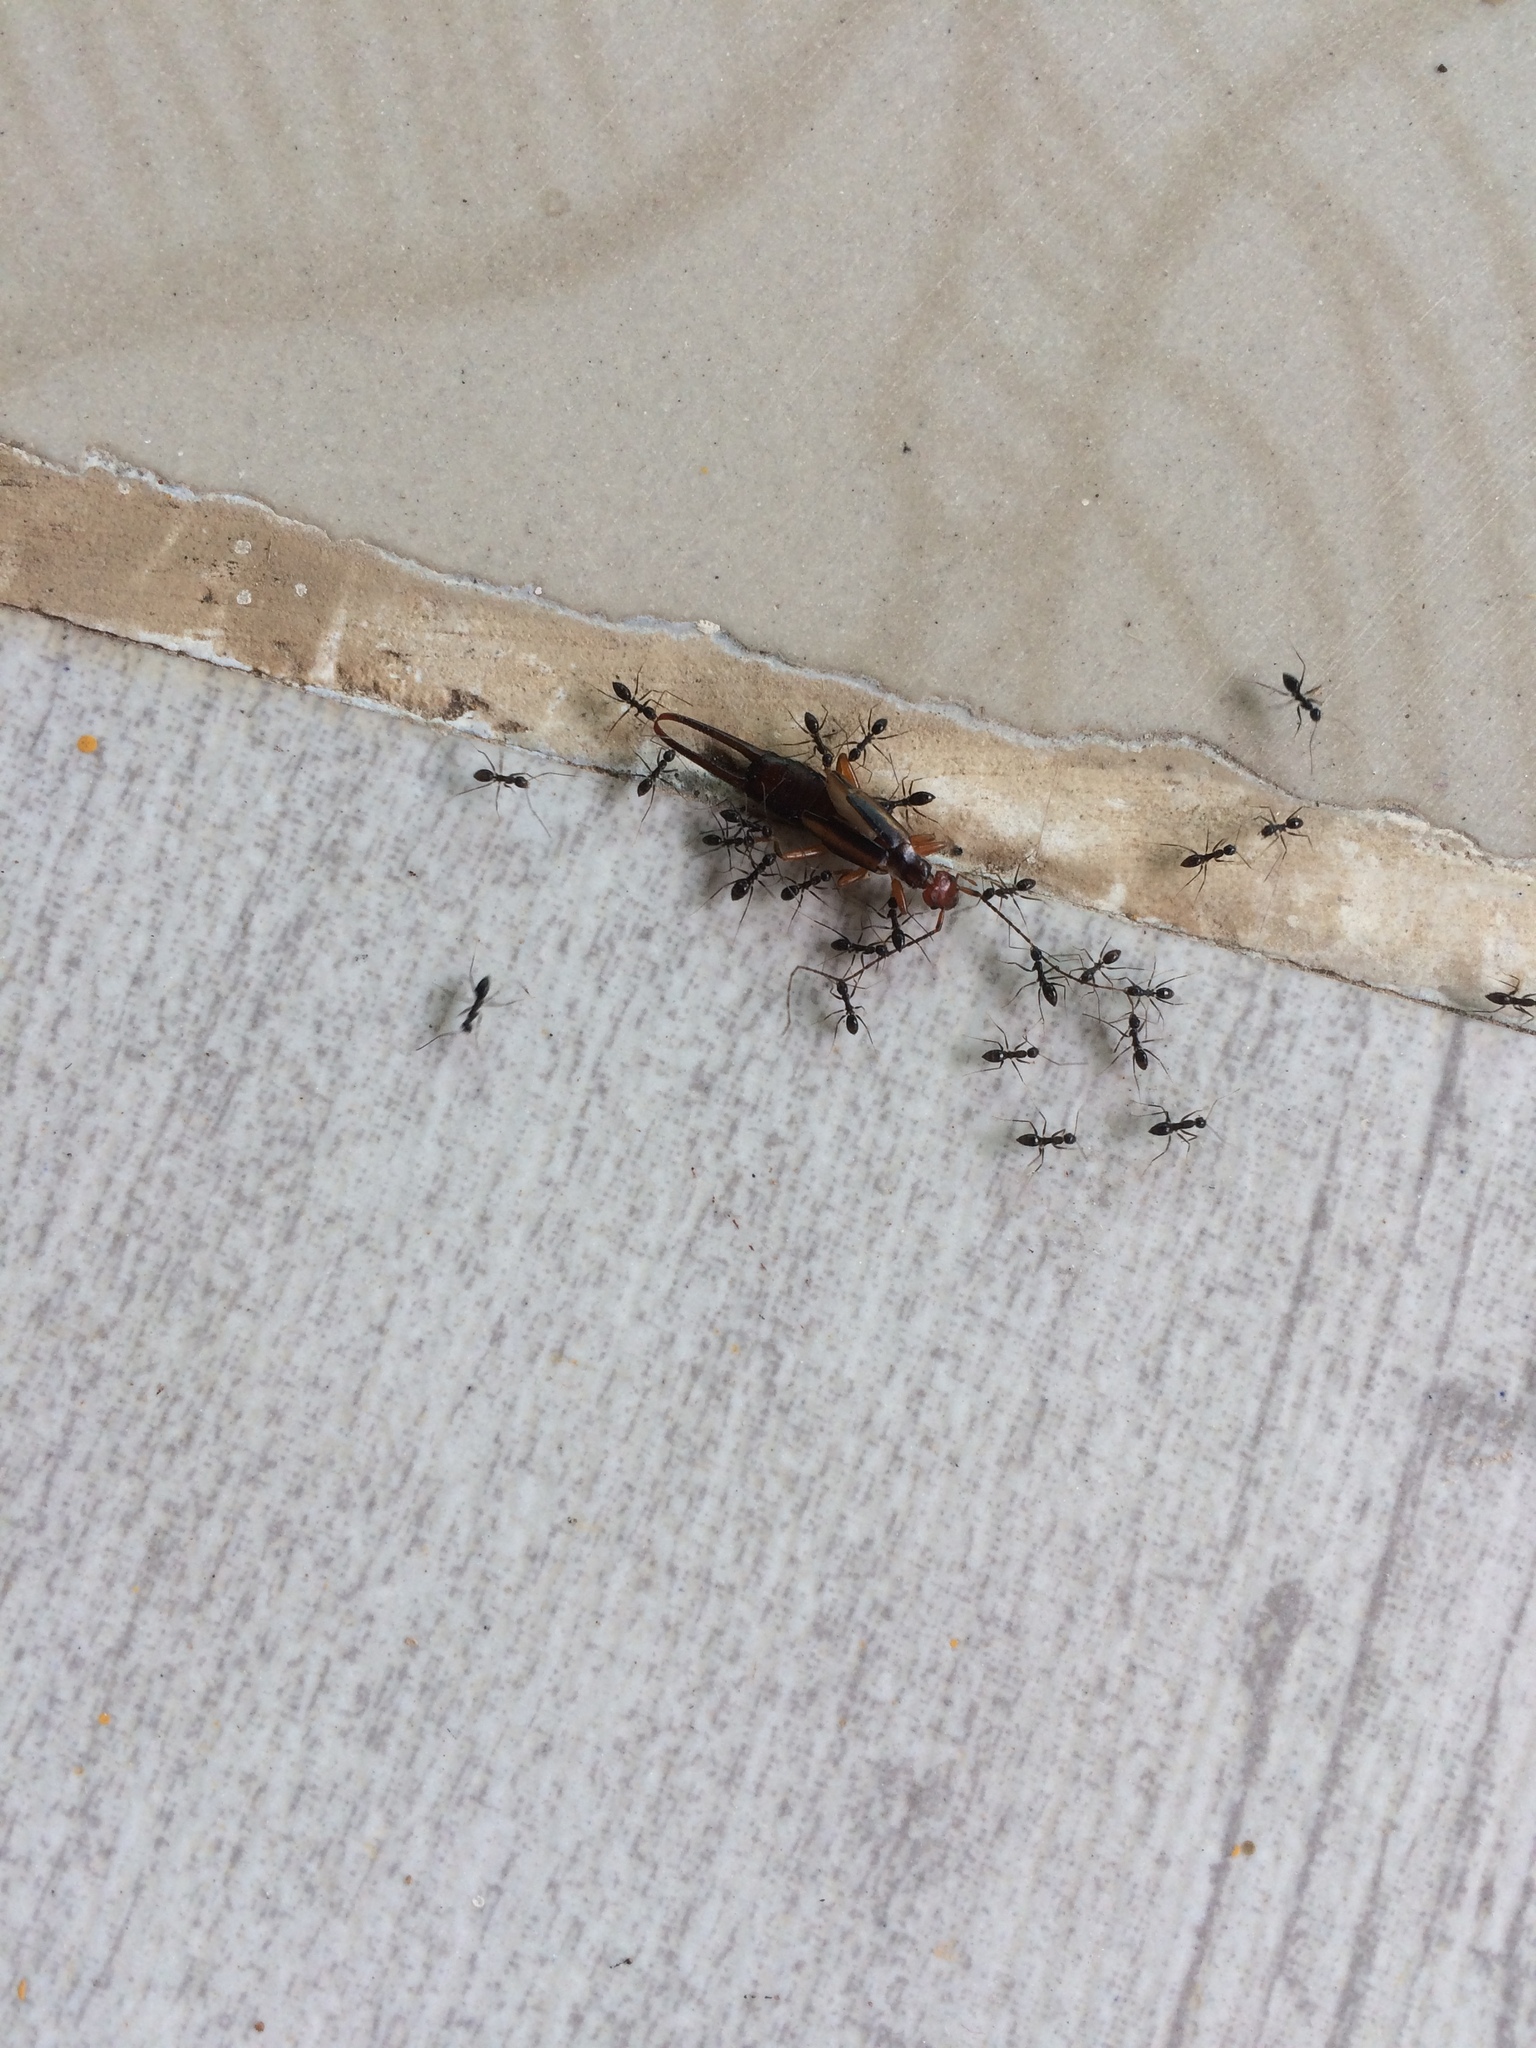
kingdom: Animalia
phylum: Arthropoda
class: Insecta
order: Hymenoptera
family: Formicidae
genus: Paratrechina
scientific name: Paratrechina longicornis
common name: Longhorned crazy ant
